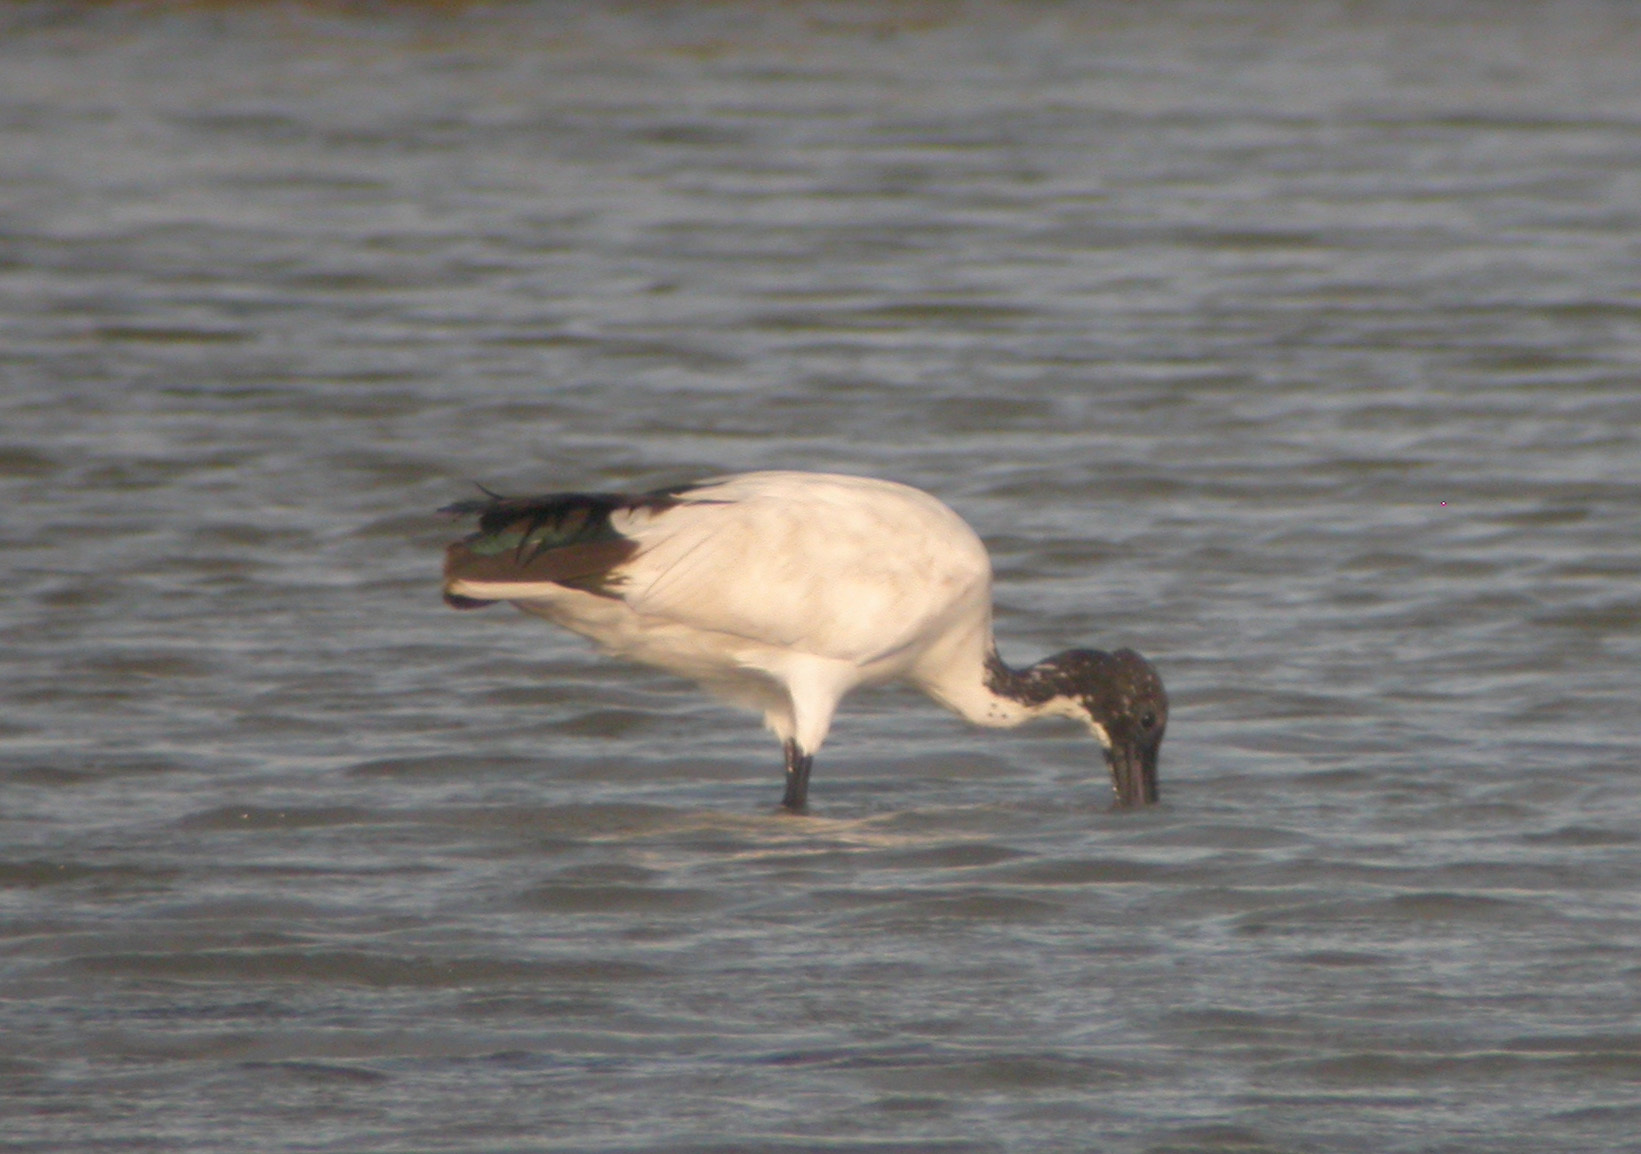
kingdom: Animalia
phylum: Chordata
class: Aves
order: Pelecaniformes
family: Threskiornithidae
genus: Threskiornis
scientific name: Threskiornis aethiopicus
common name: Sacred ibis
